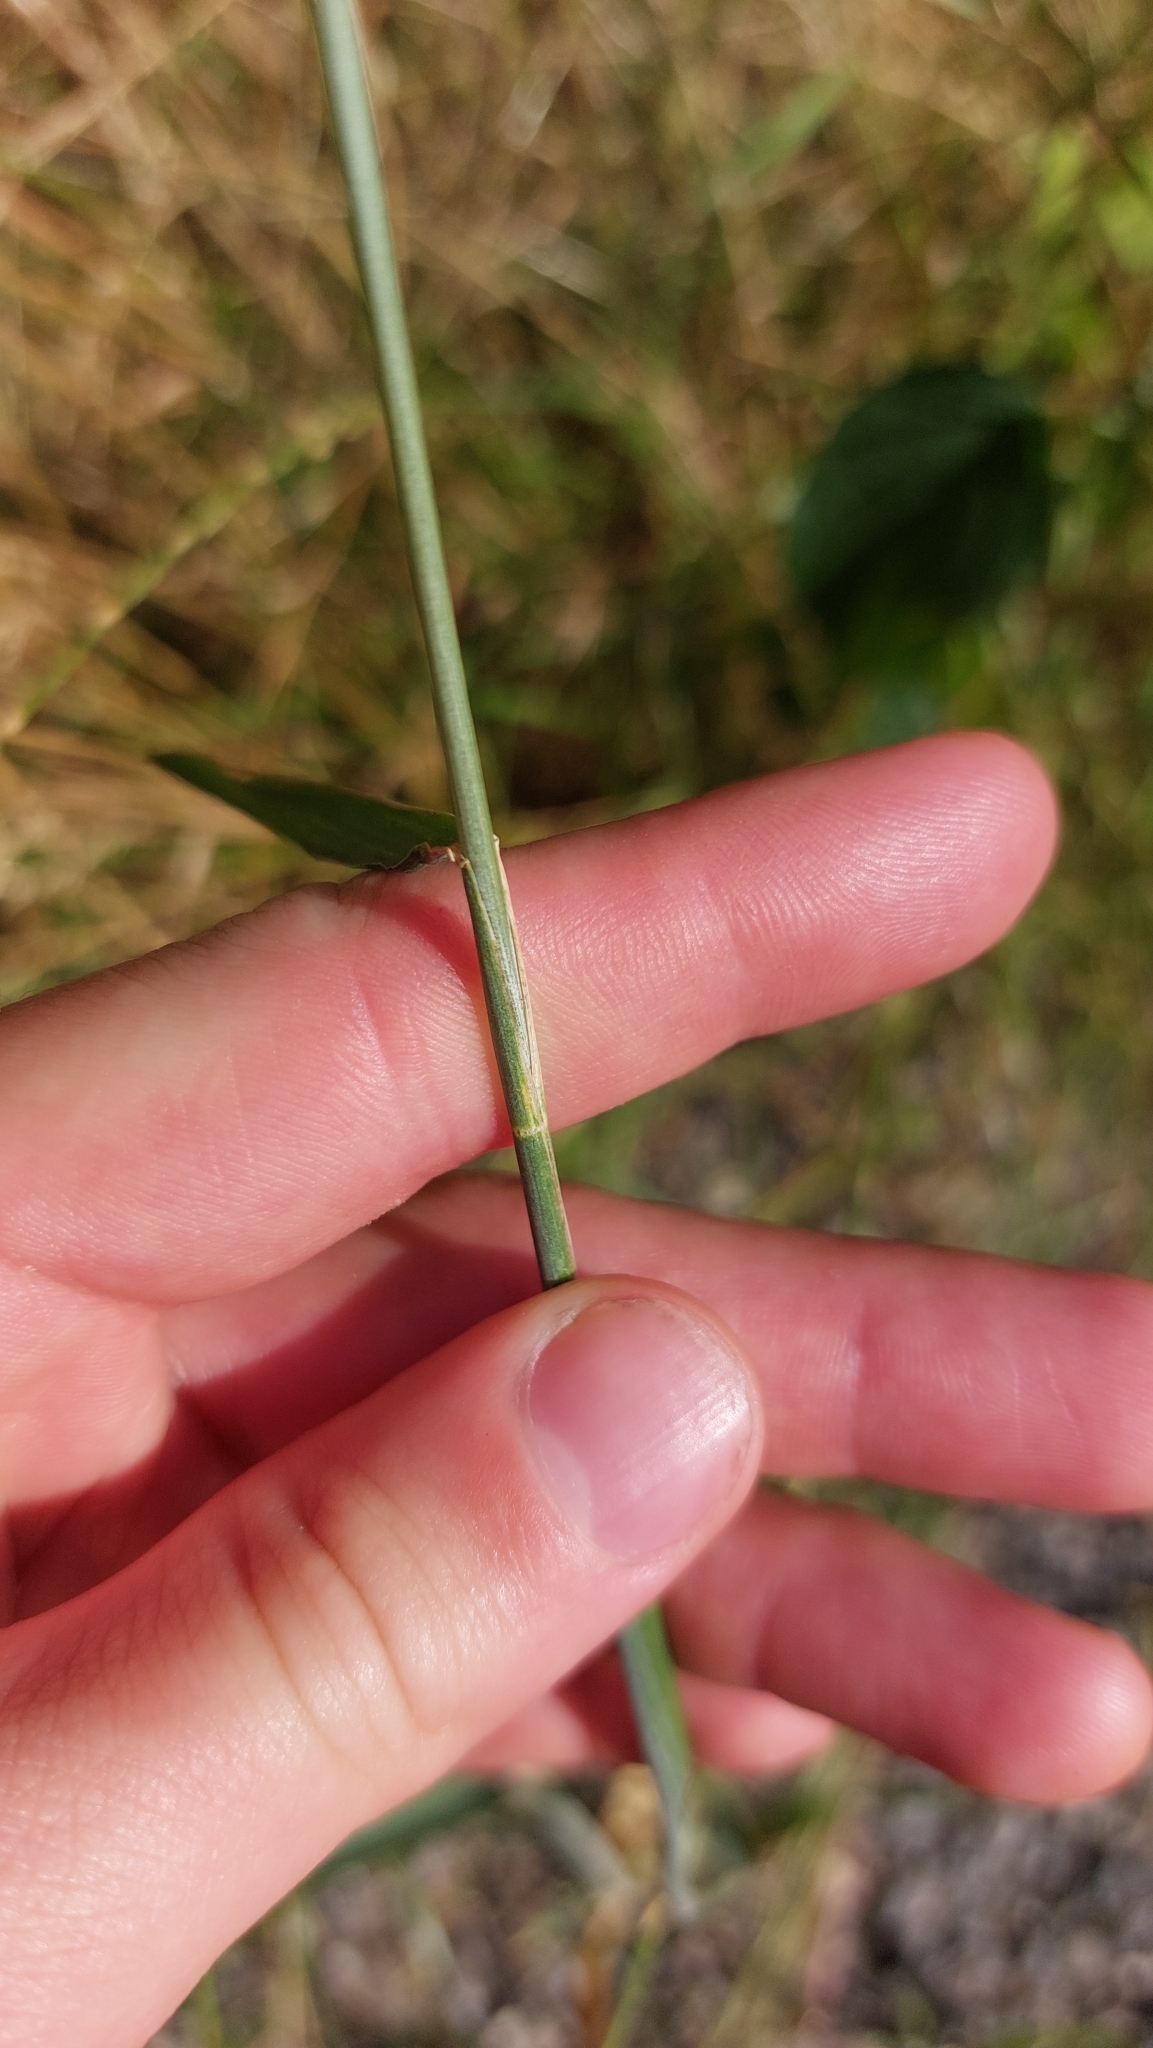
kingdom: Plantae
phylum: Tracheophyta
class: Liliopsida
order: Poales
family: Poaceae
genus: Secale
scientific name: Secale cereale
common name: Rye
